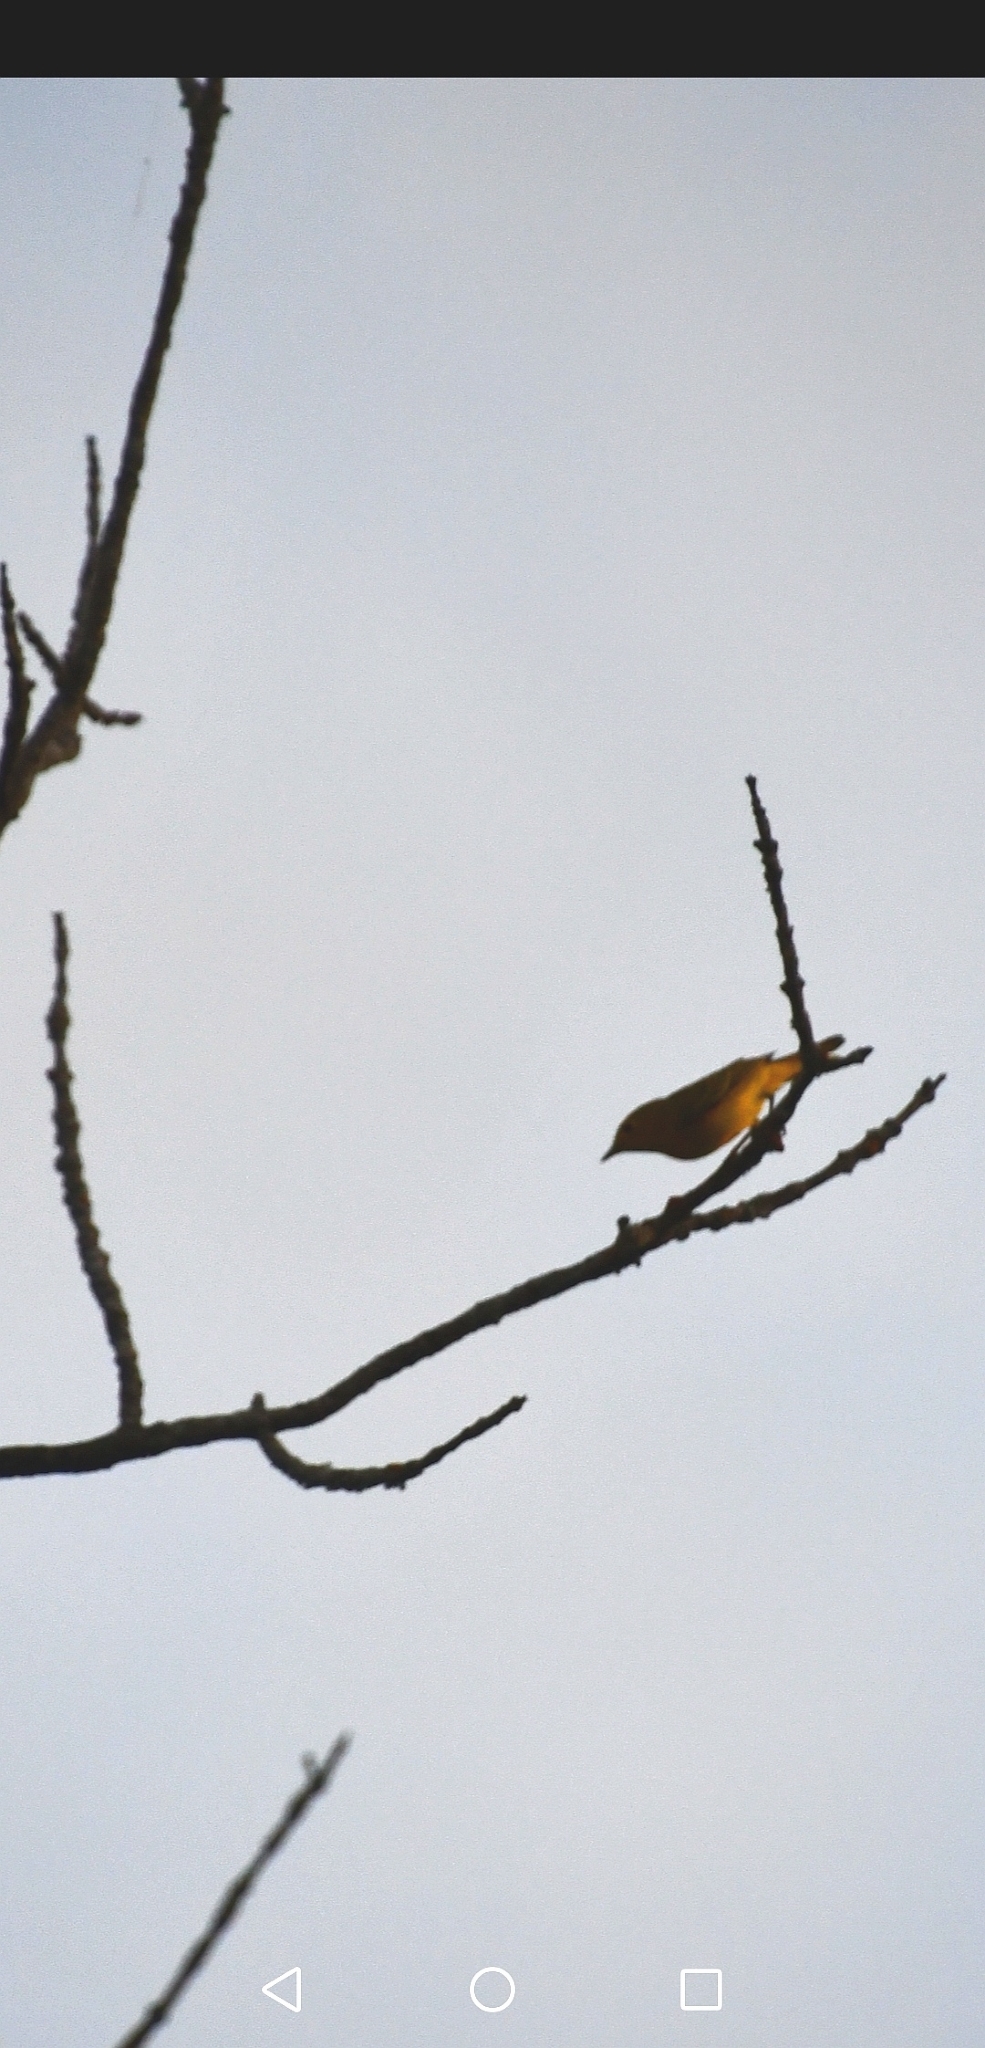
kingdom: Animalia
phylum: Chordata
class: Aves
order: Passeriformes
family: Parulidae
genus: Setophaga
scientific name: Setophaga petechia
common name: Yellow warbler
